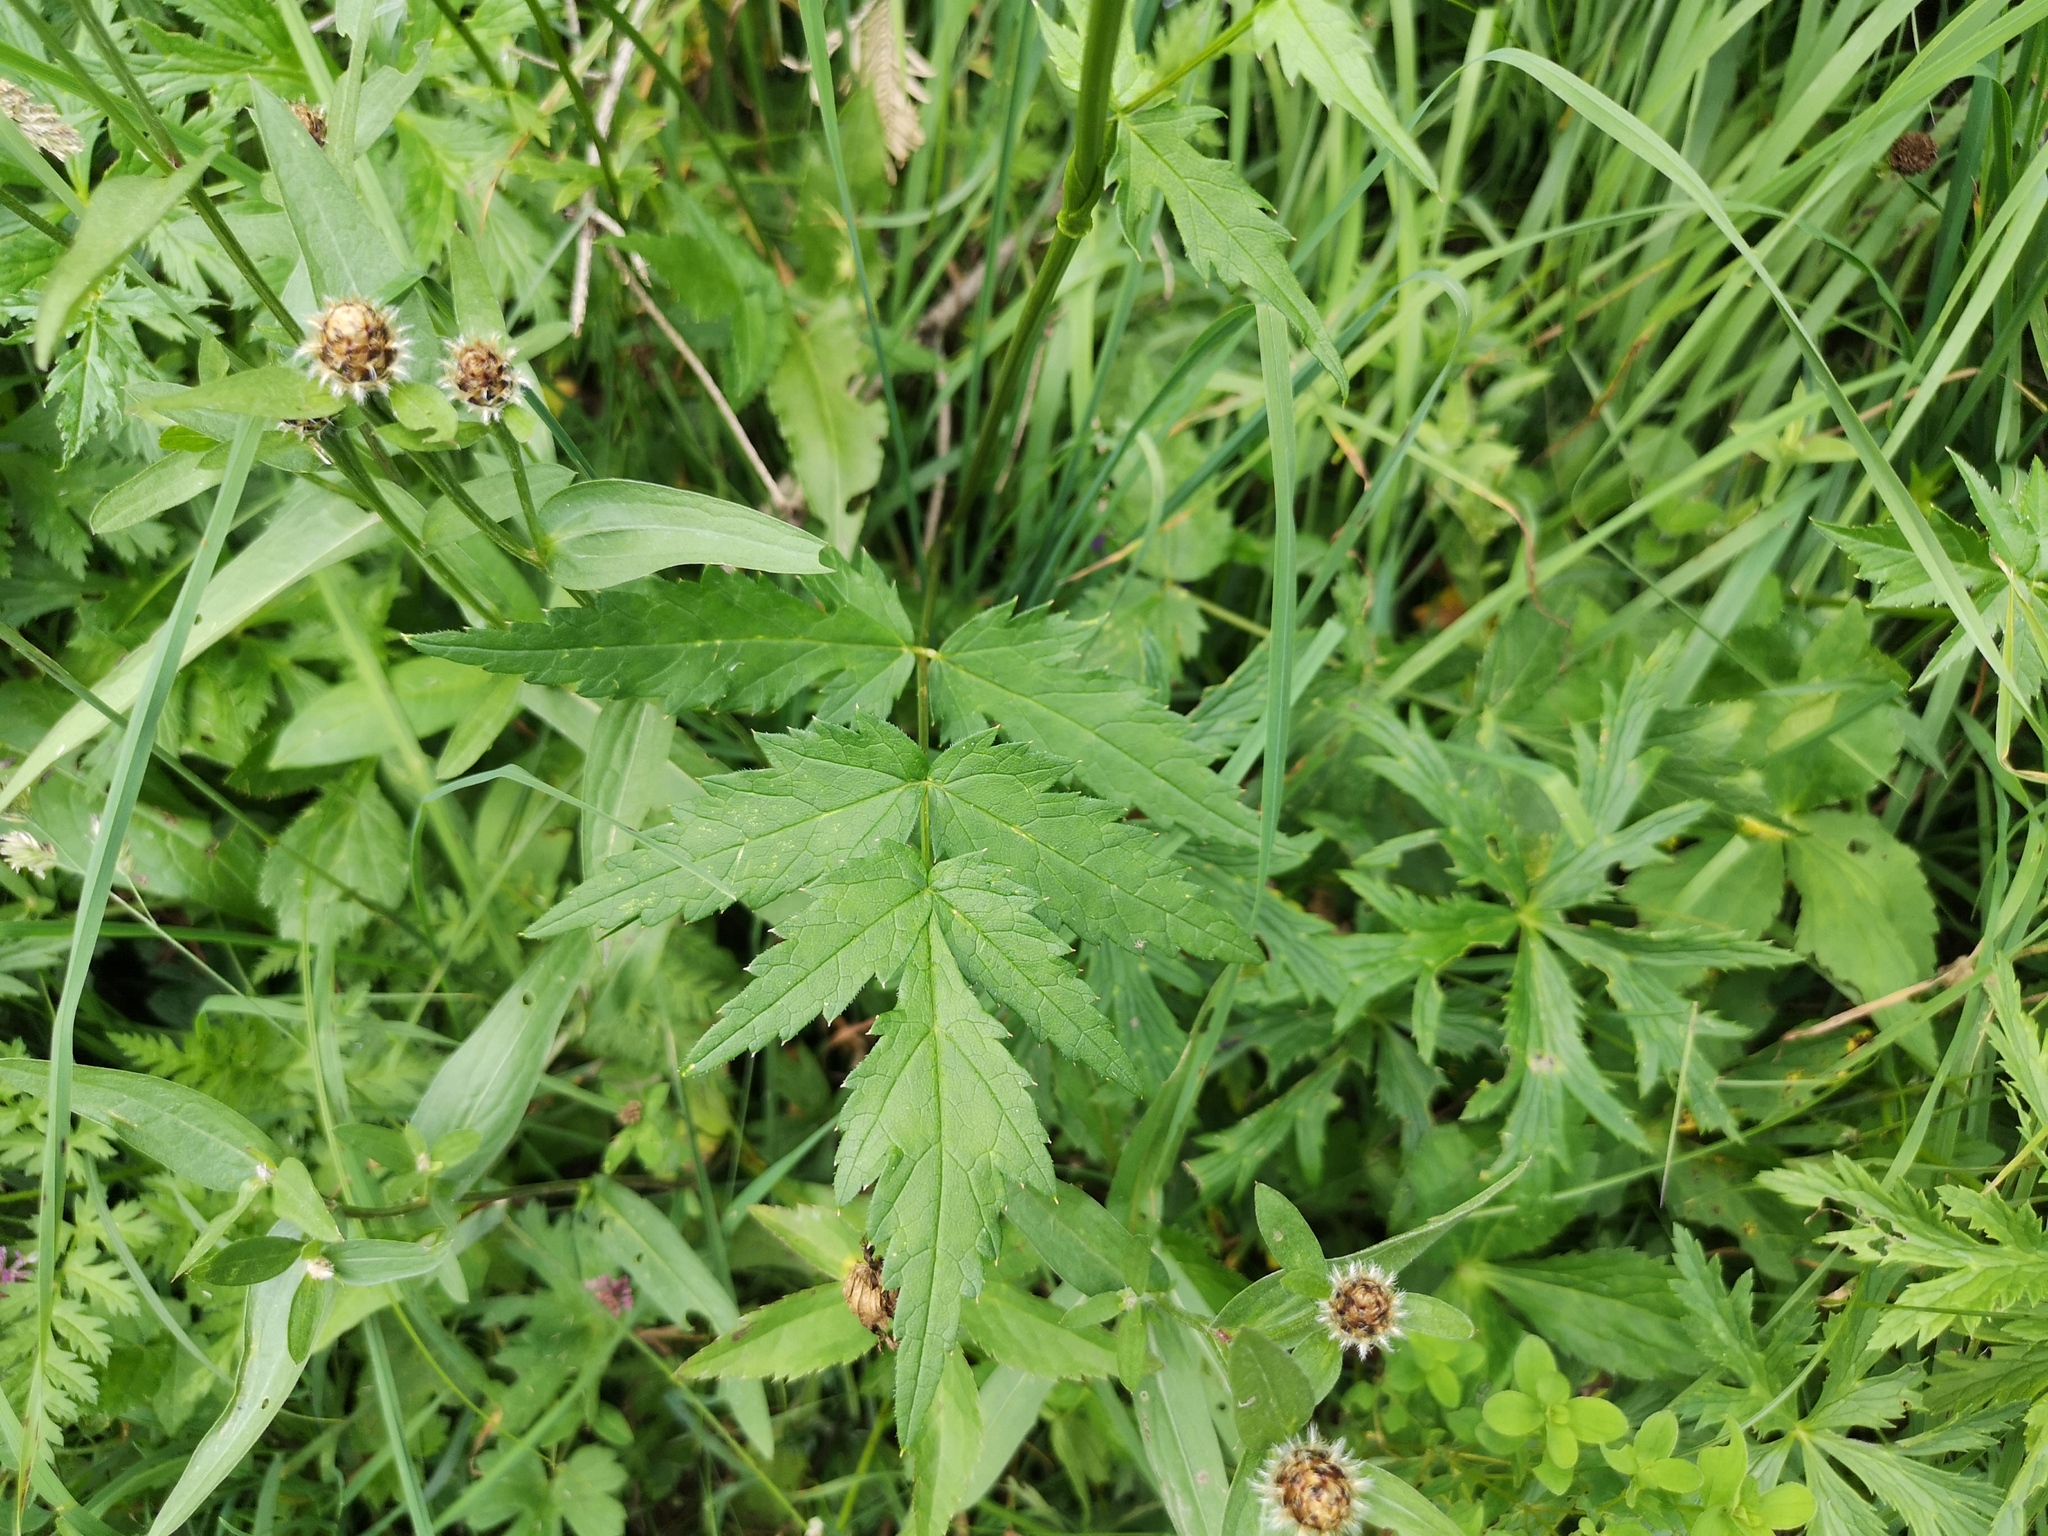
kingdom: Plantae
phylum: Tracheophyta
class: Magnoliopsida
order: Apiales
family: Apiaceae
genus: Heracleum
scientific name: Heracleum austriacum
